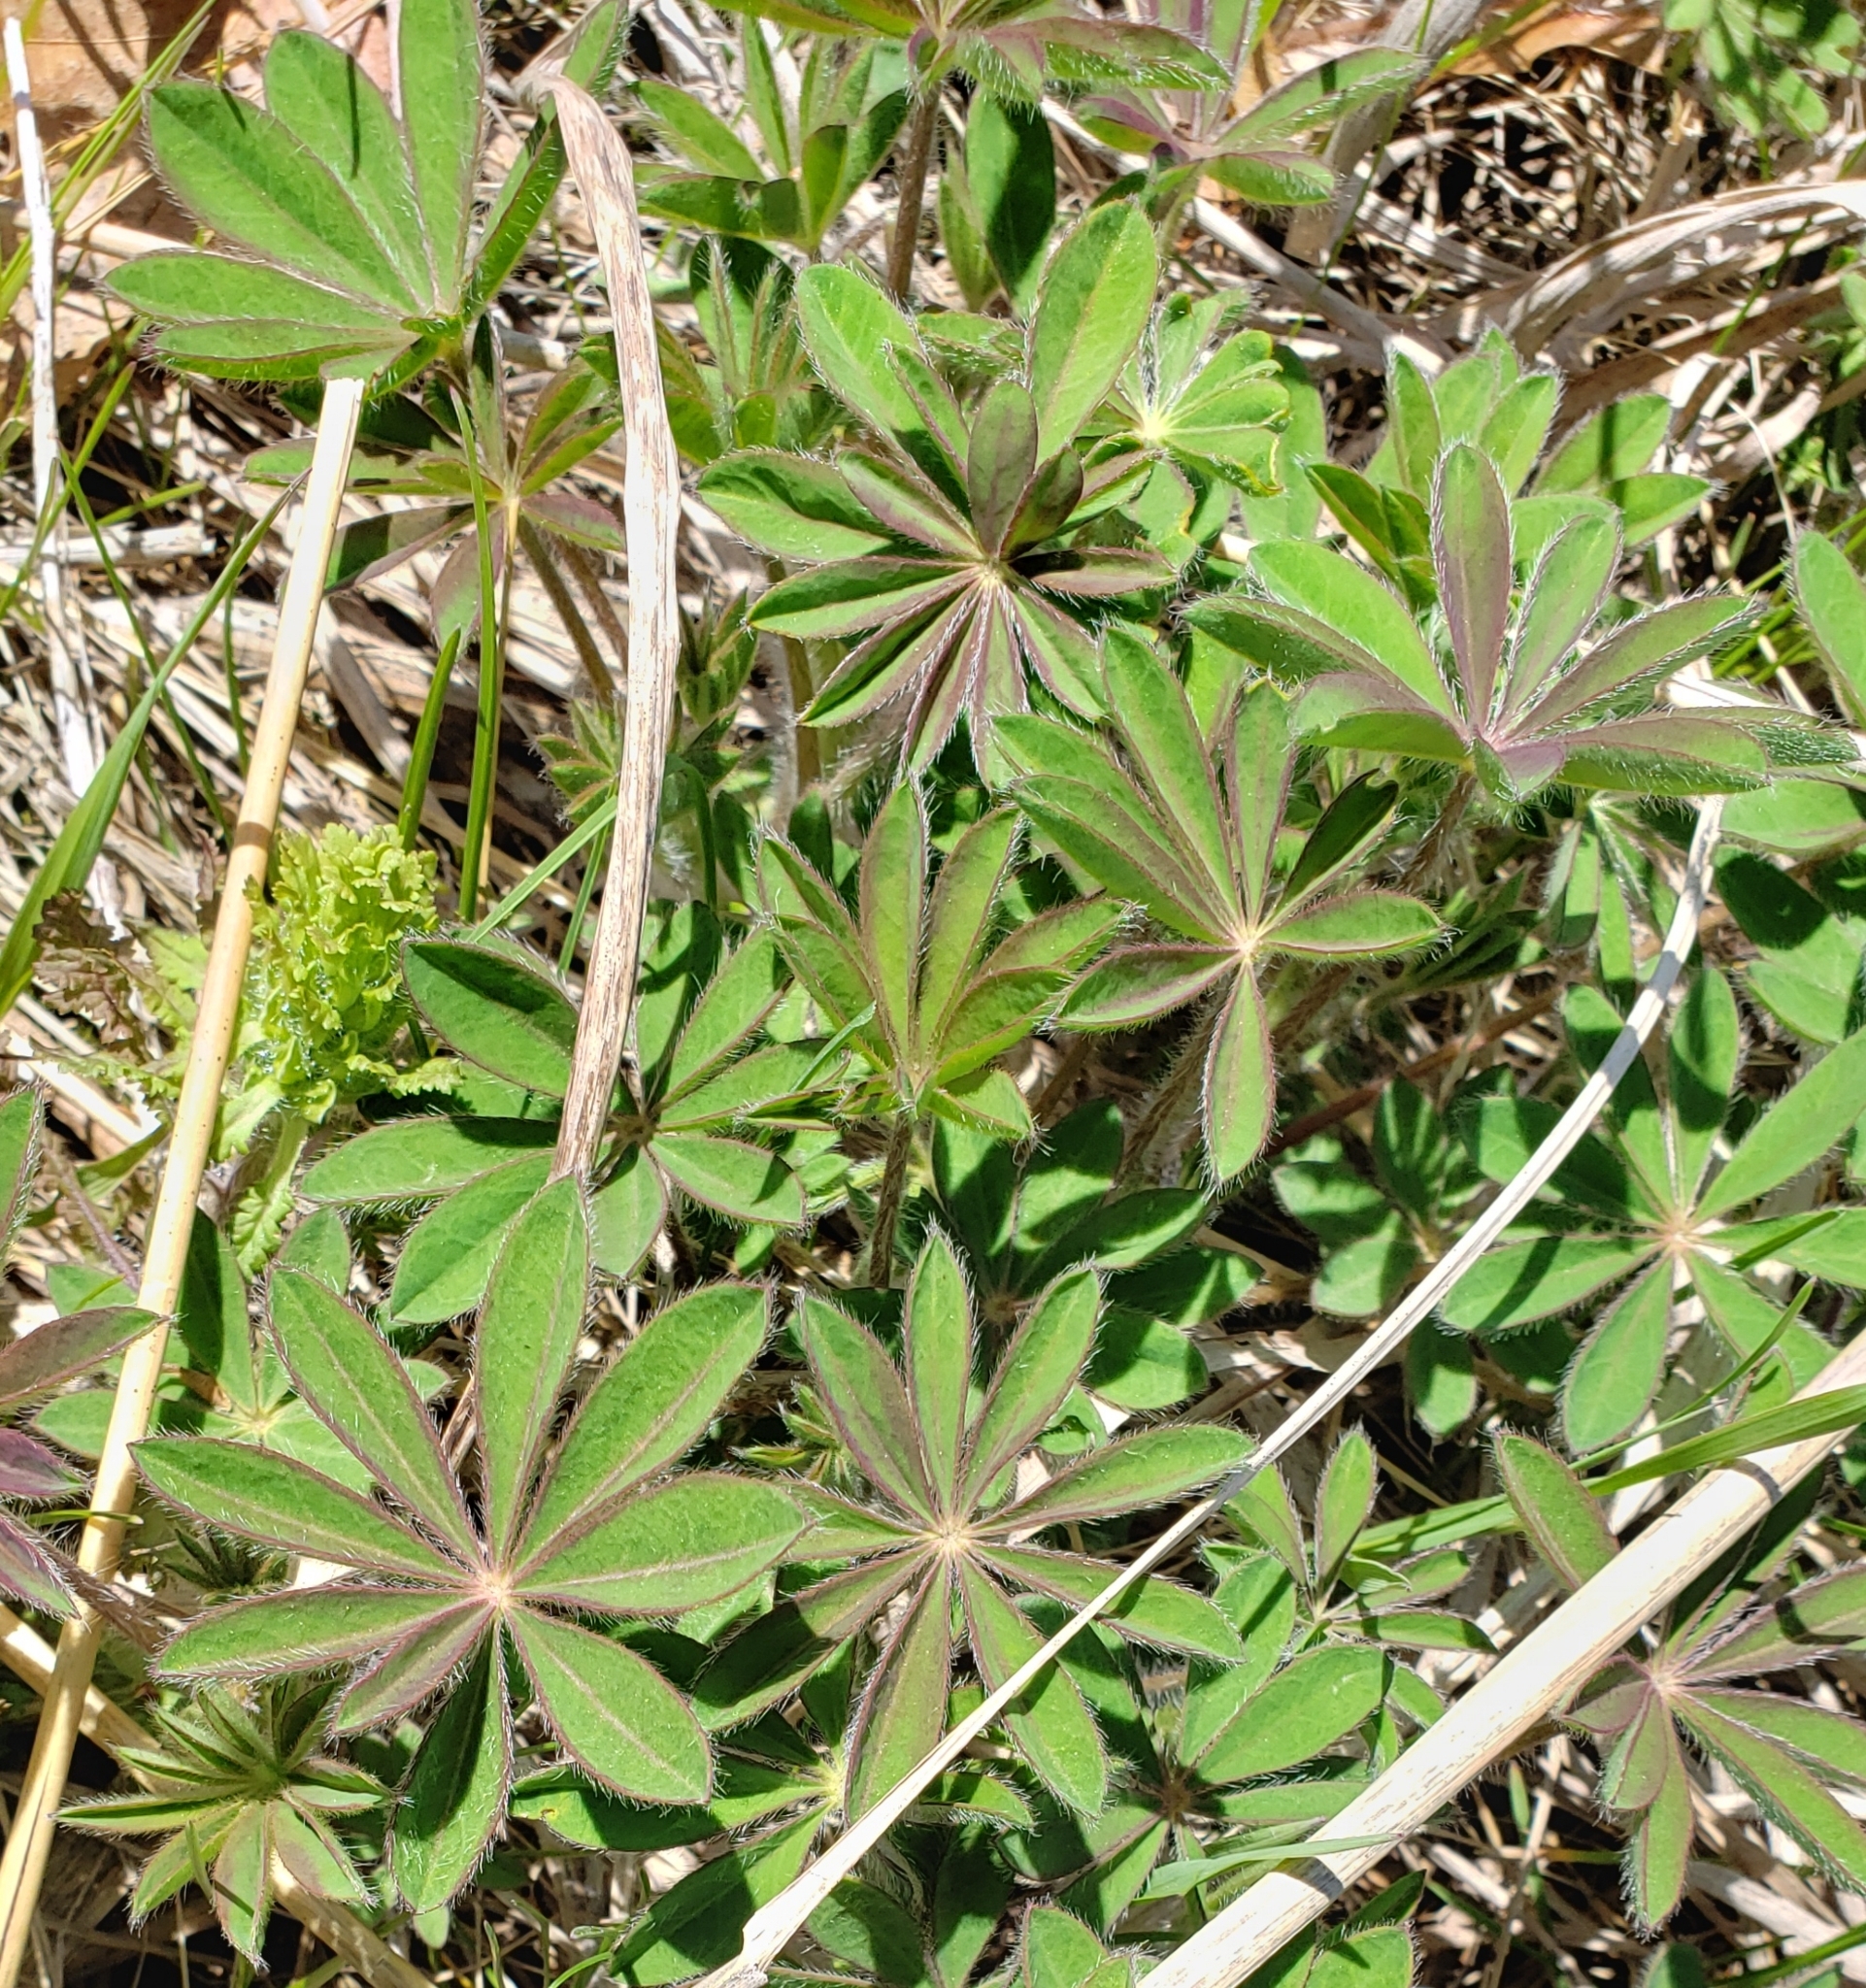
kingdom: Plantae
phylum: Tracheophyta
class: Magnoliopsida
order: Fabales
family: Fabaceae
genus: Lupinus
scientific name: Lupinus perennis
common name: Sundial lupine
